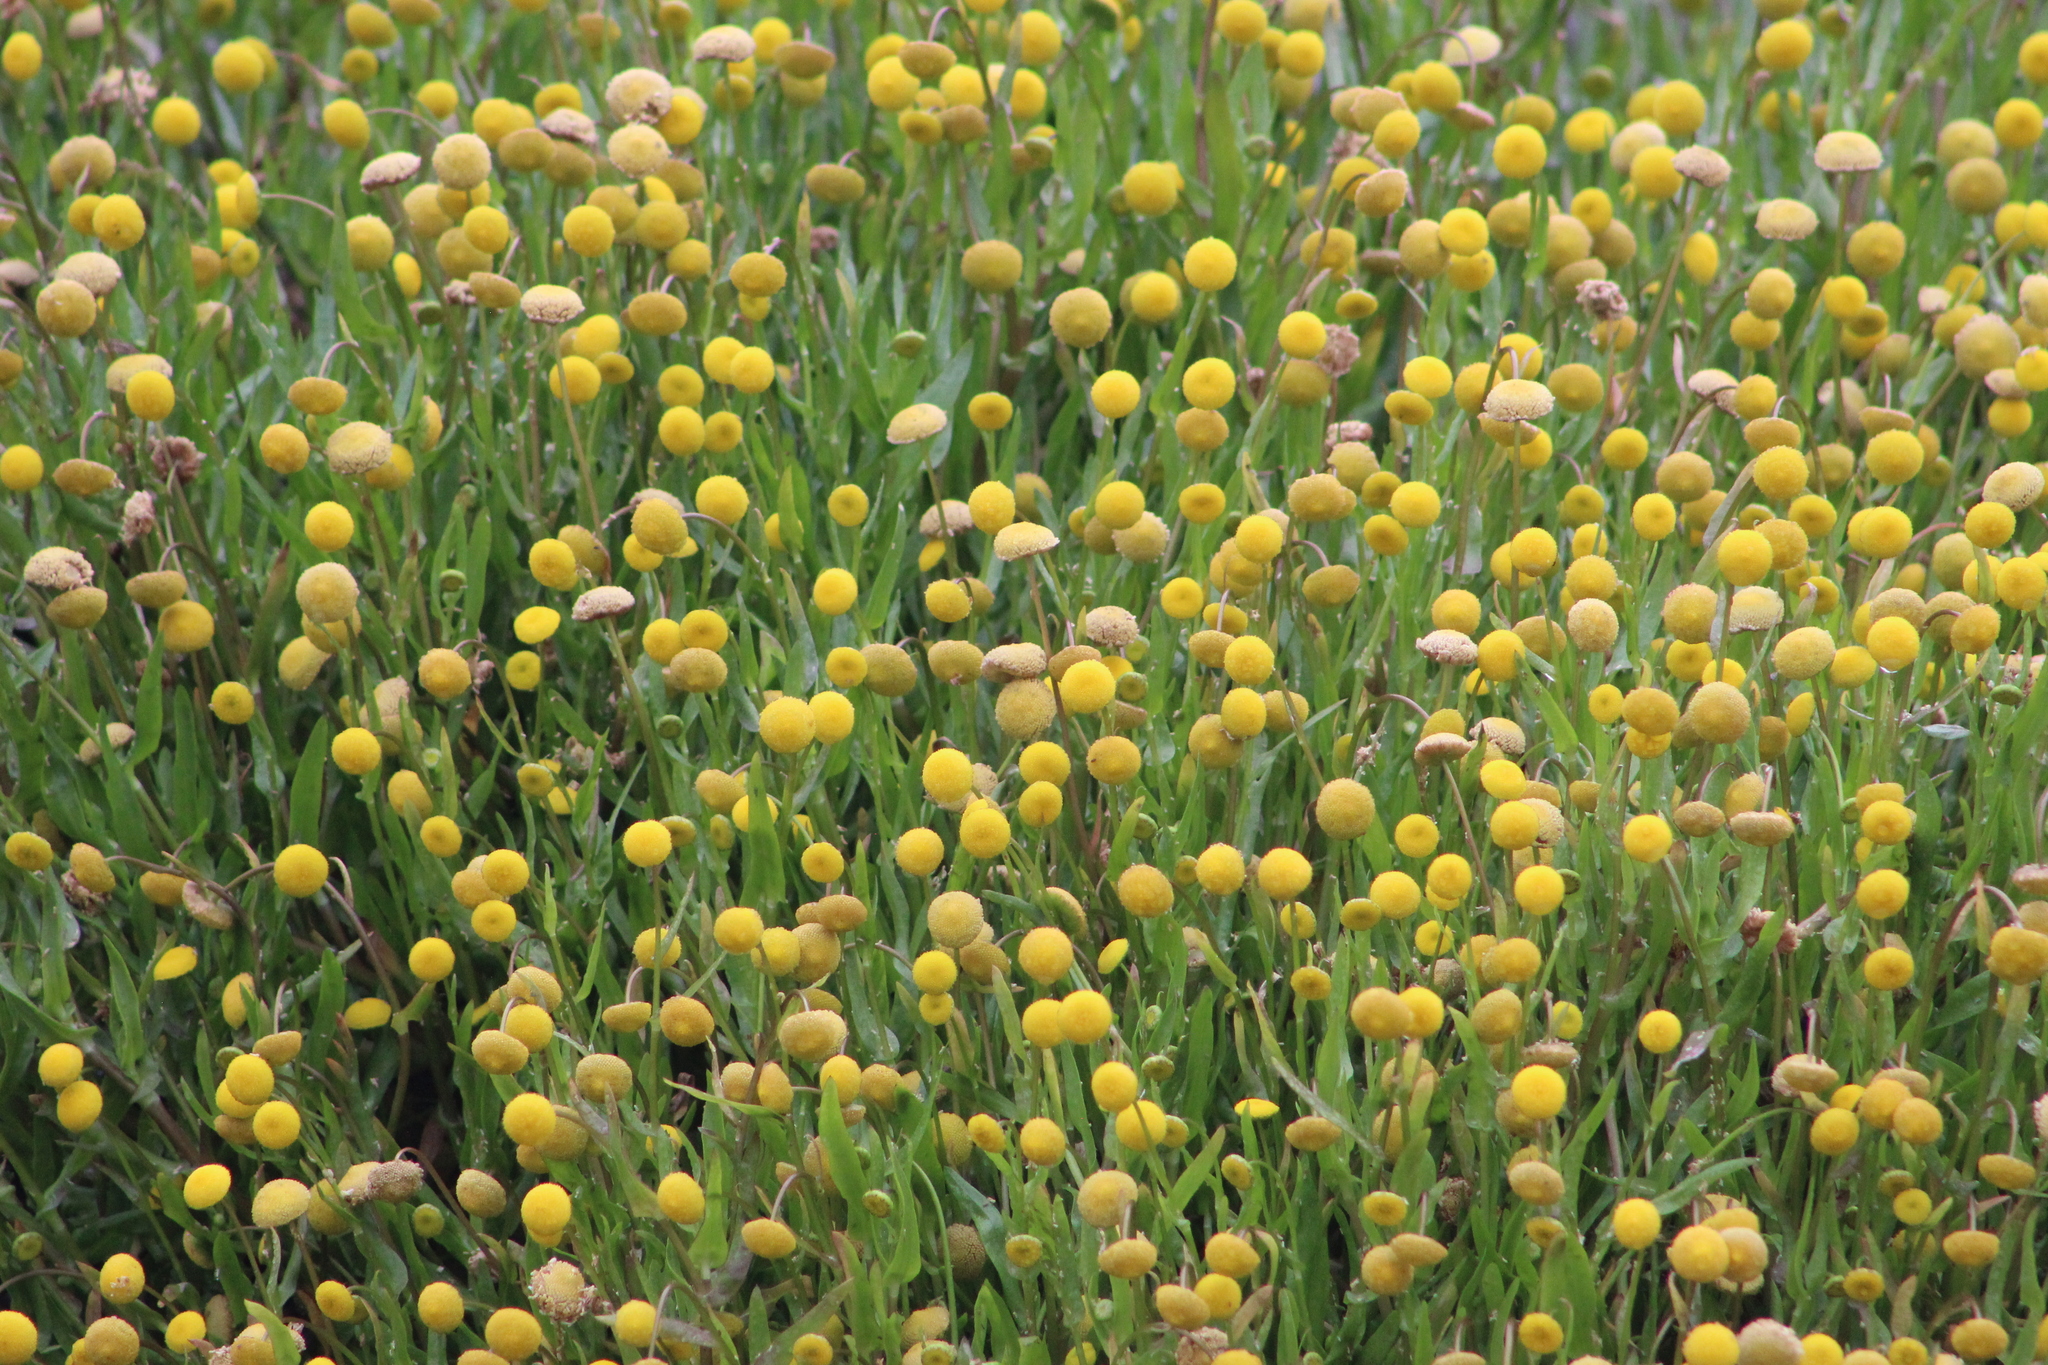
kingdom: Plantae
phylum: Tracheophyta
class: Magnoliopsida
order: Asterales
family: Asteraceae
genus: Cotula
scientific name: Cotula coronopifolia
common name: Buttonweed
